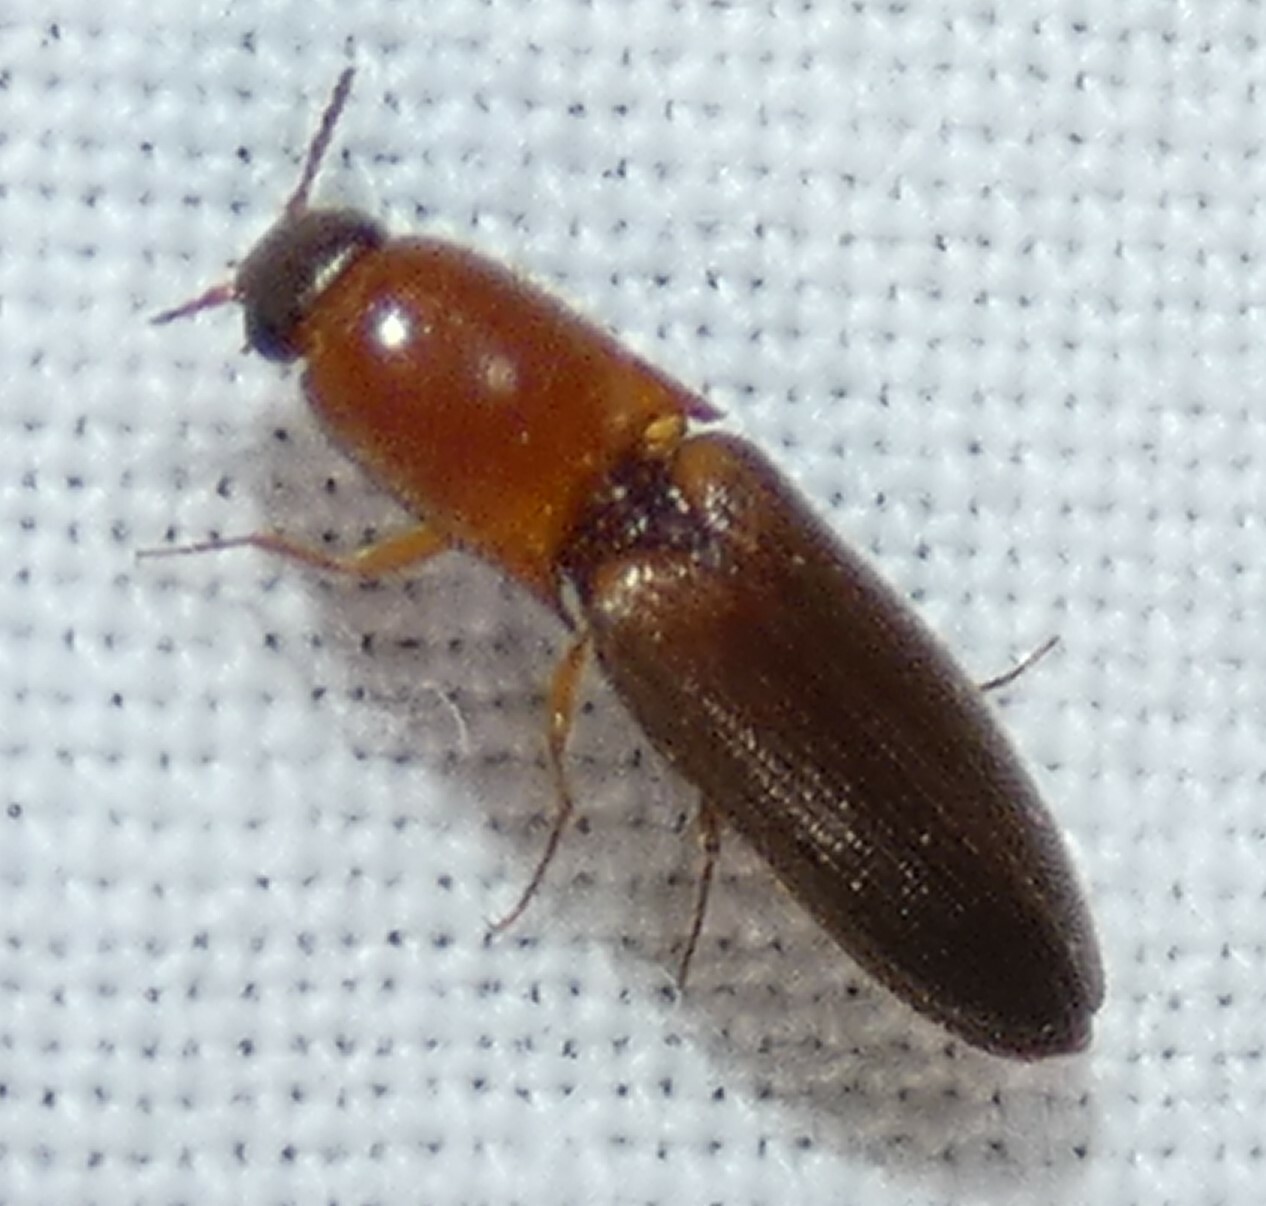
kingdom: Animalia
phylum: Arthropoda
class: Insecta
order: Coleoptera
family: Elateridae
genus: Megapenthes
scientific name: Megapenthes
